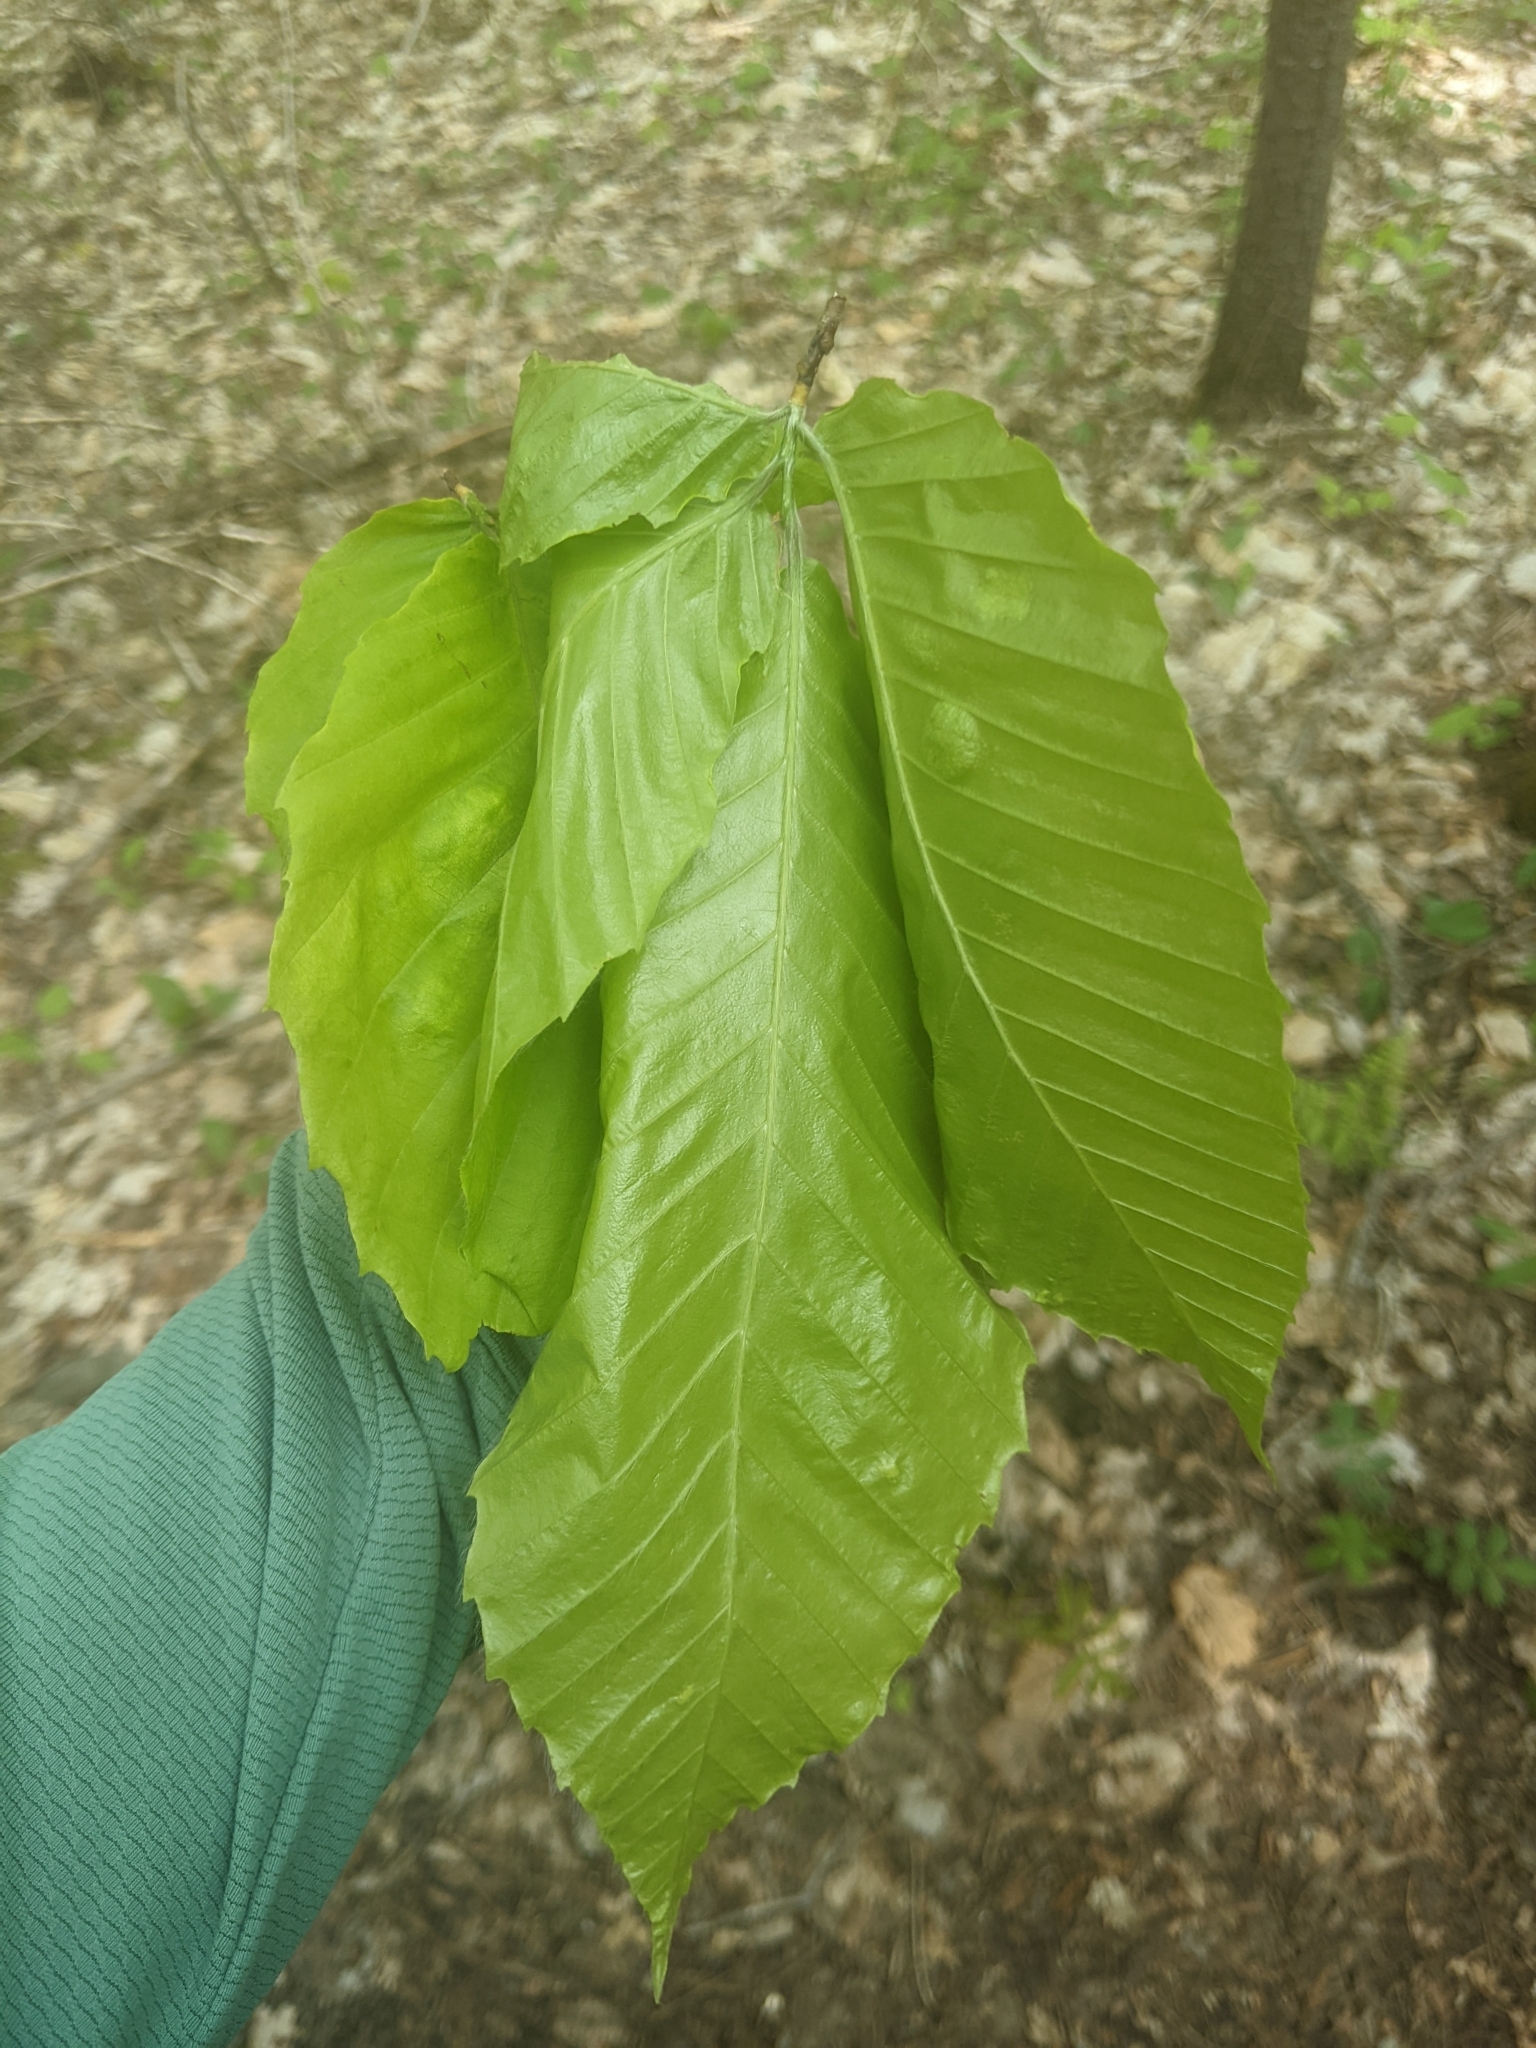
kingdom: Animalia
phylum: Nematoda
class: Chromadorea
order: Rhabditida
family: Anguinidae
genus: Litylenchus
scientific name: Litylenchus crenatae
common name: Beech leaf disease
